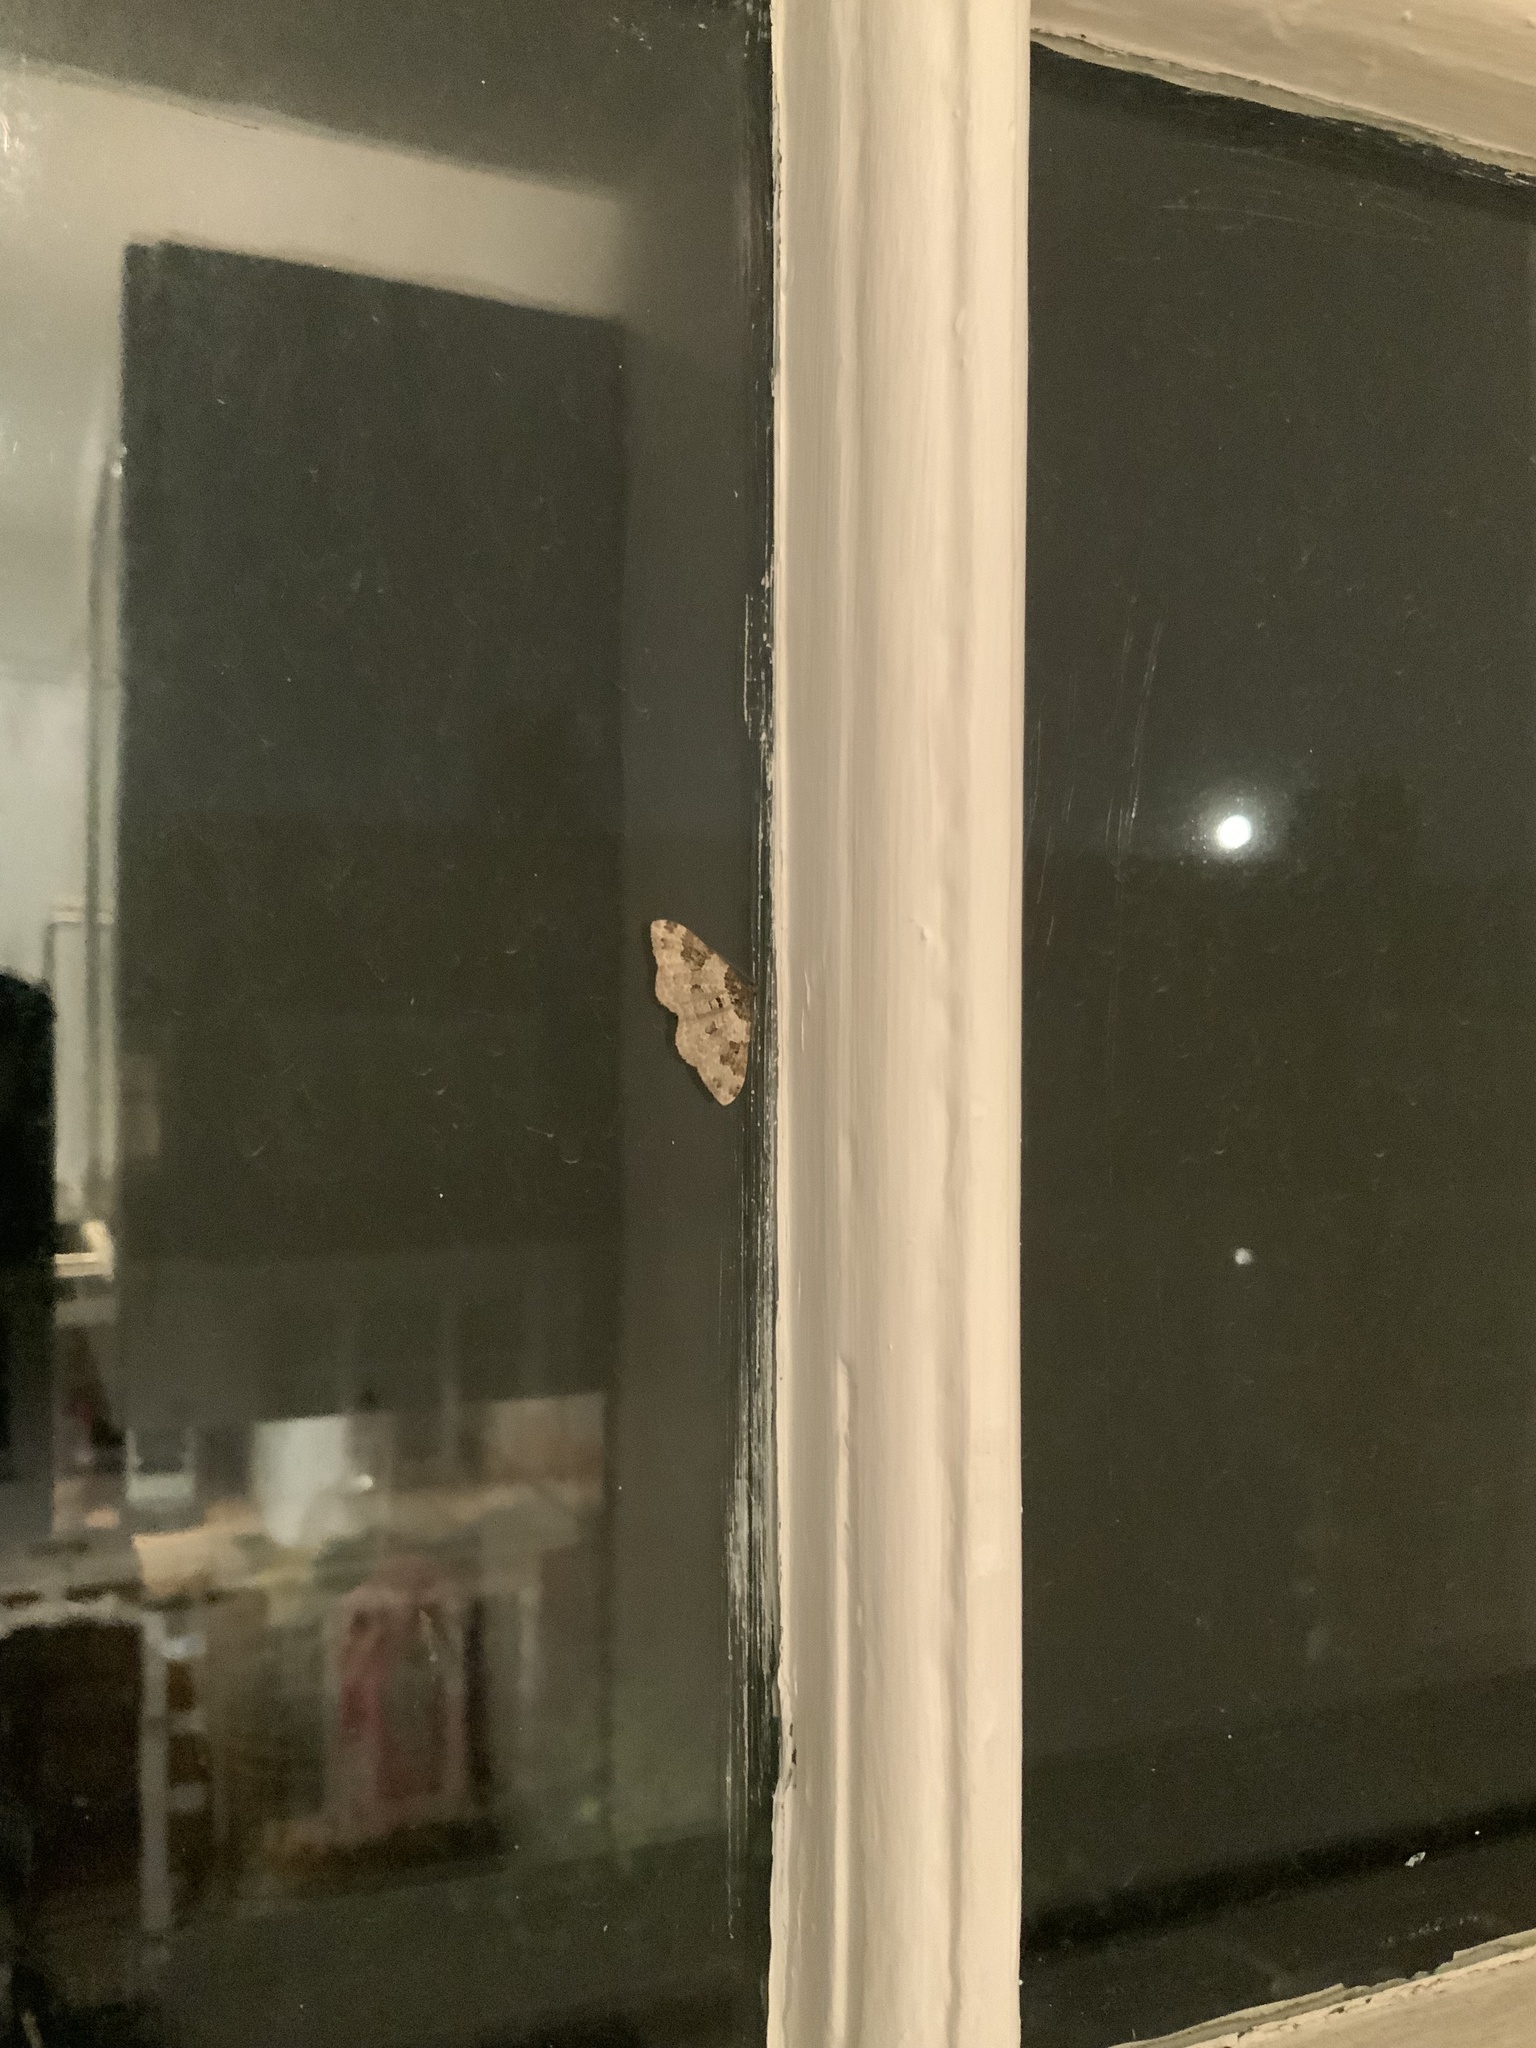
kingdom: Animalia
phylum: Arthropoda
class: Insecta
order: Lepidoptera
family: Geometridae
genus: Xanthorhoe
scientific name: Xanthorhoe fluctuata
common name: Garden carpet
